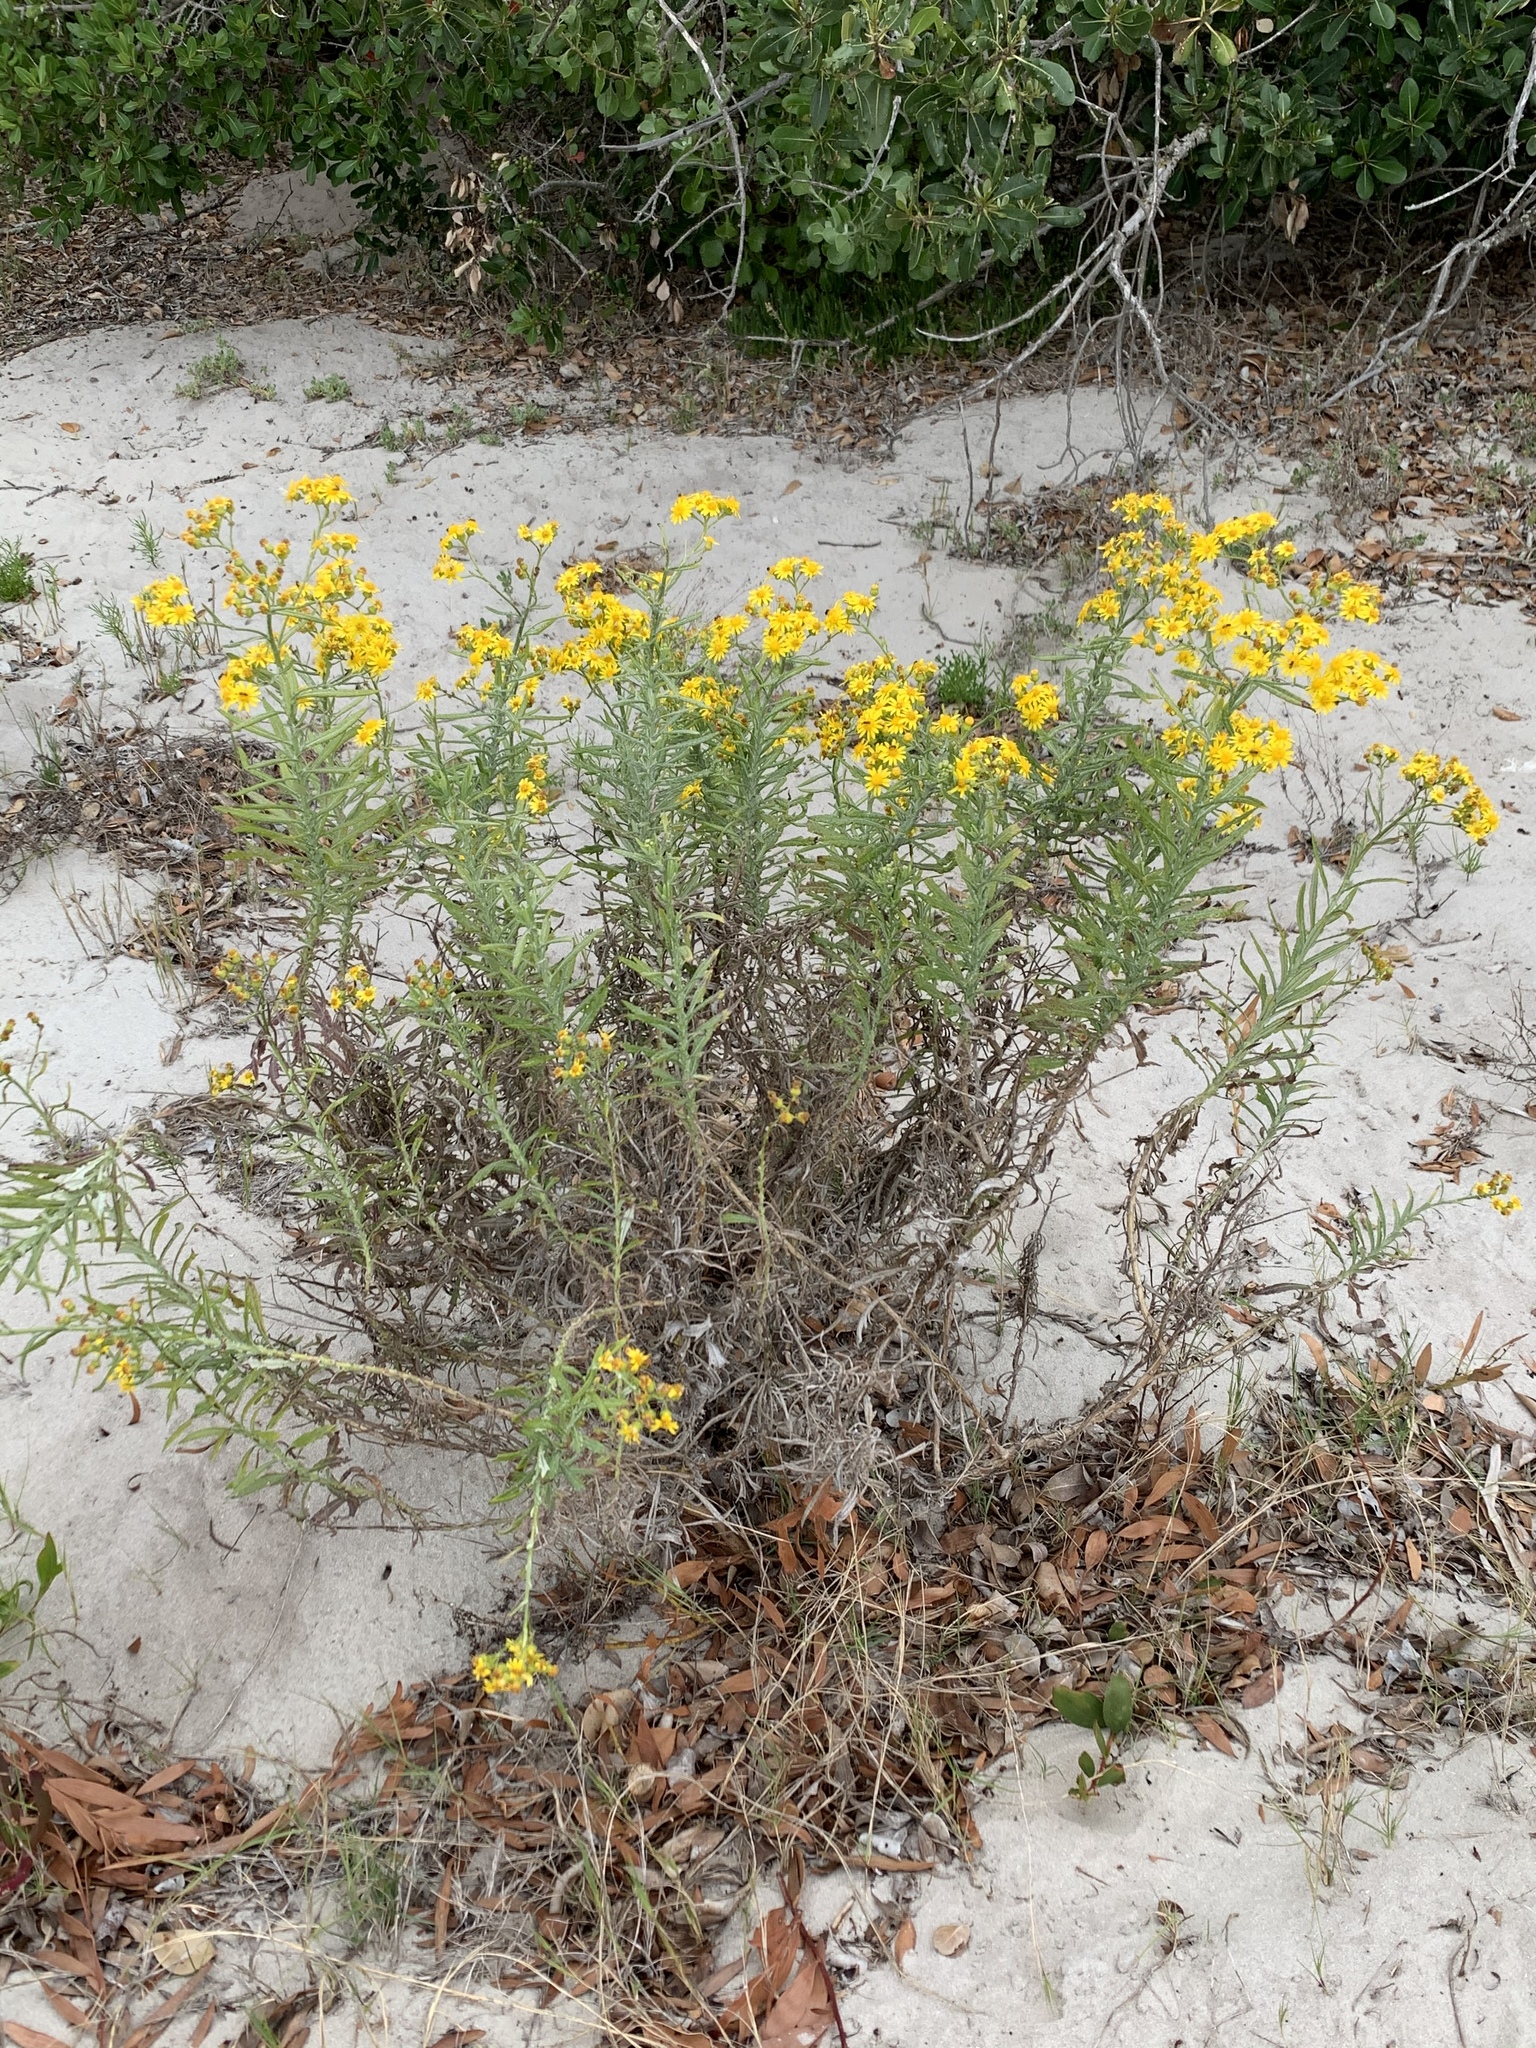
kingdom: Plantae
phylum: Tracheophyta
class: Magnoliopsida
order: Asterales
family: Asteraceae
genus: Senecio
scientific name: Senecio pterophorus
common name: Shoddy ragwort
